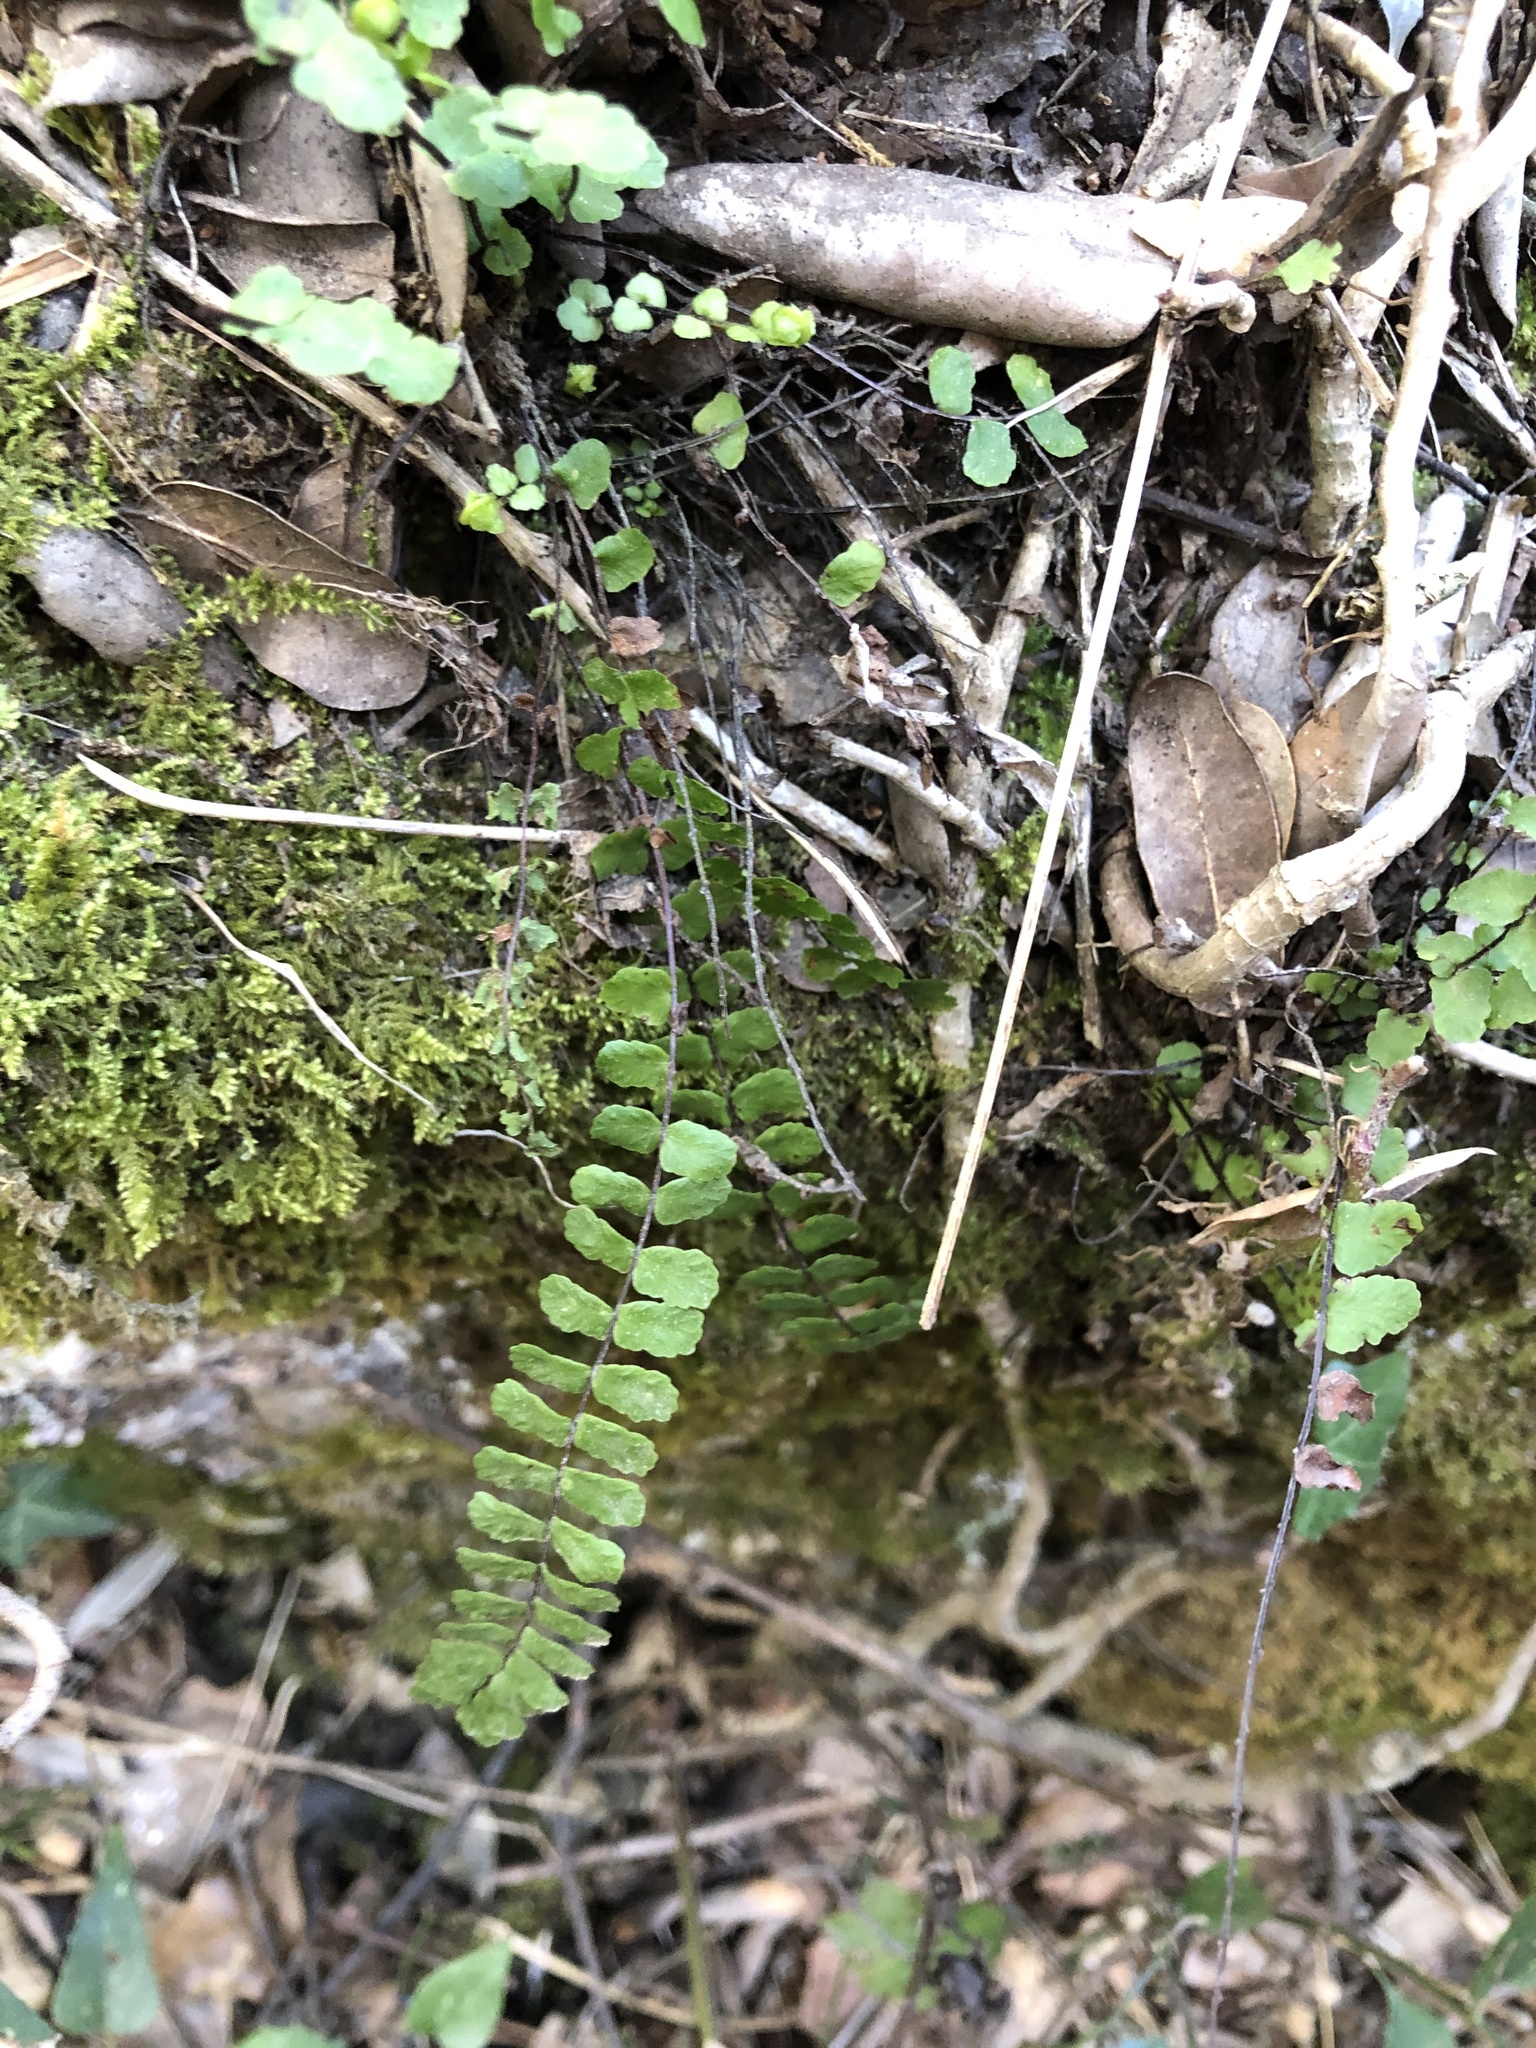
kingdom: Plantae
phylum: Tracheophyta
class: Polypodiopsida
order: Polypodiales
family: Aspleniaceae
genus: Asplenium
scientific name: Asplenium trichomanes
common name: Maidenhair spleenwort
